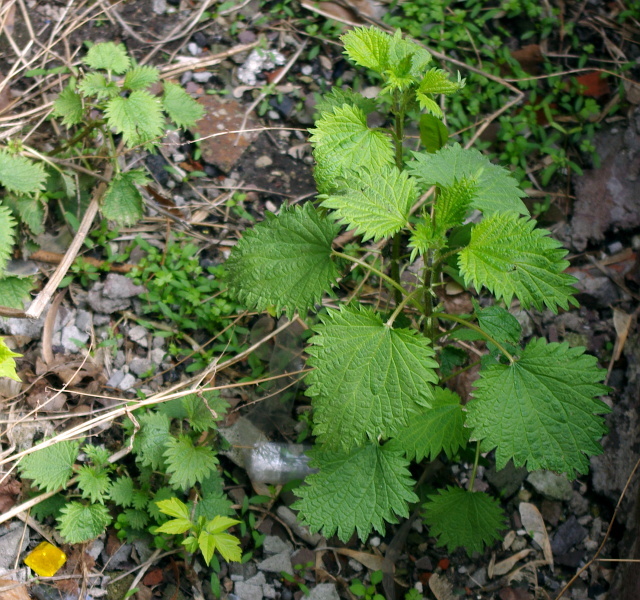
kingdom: Plantae
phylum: Tracheophyta
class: Magnoliopsida
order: Rosales
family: Urticaceae
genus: Urtica
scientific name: Urtica dioica
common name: Common nettle
